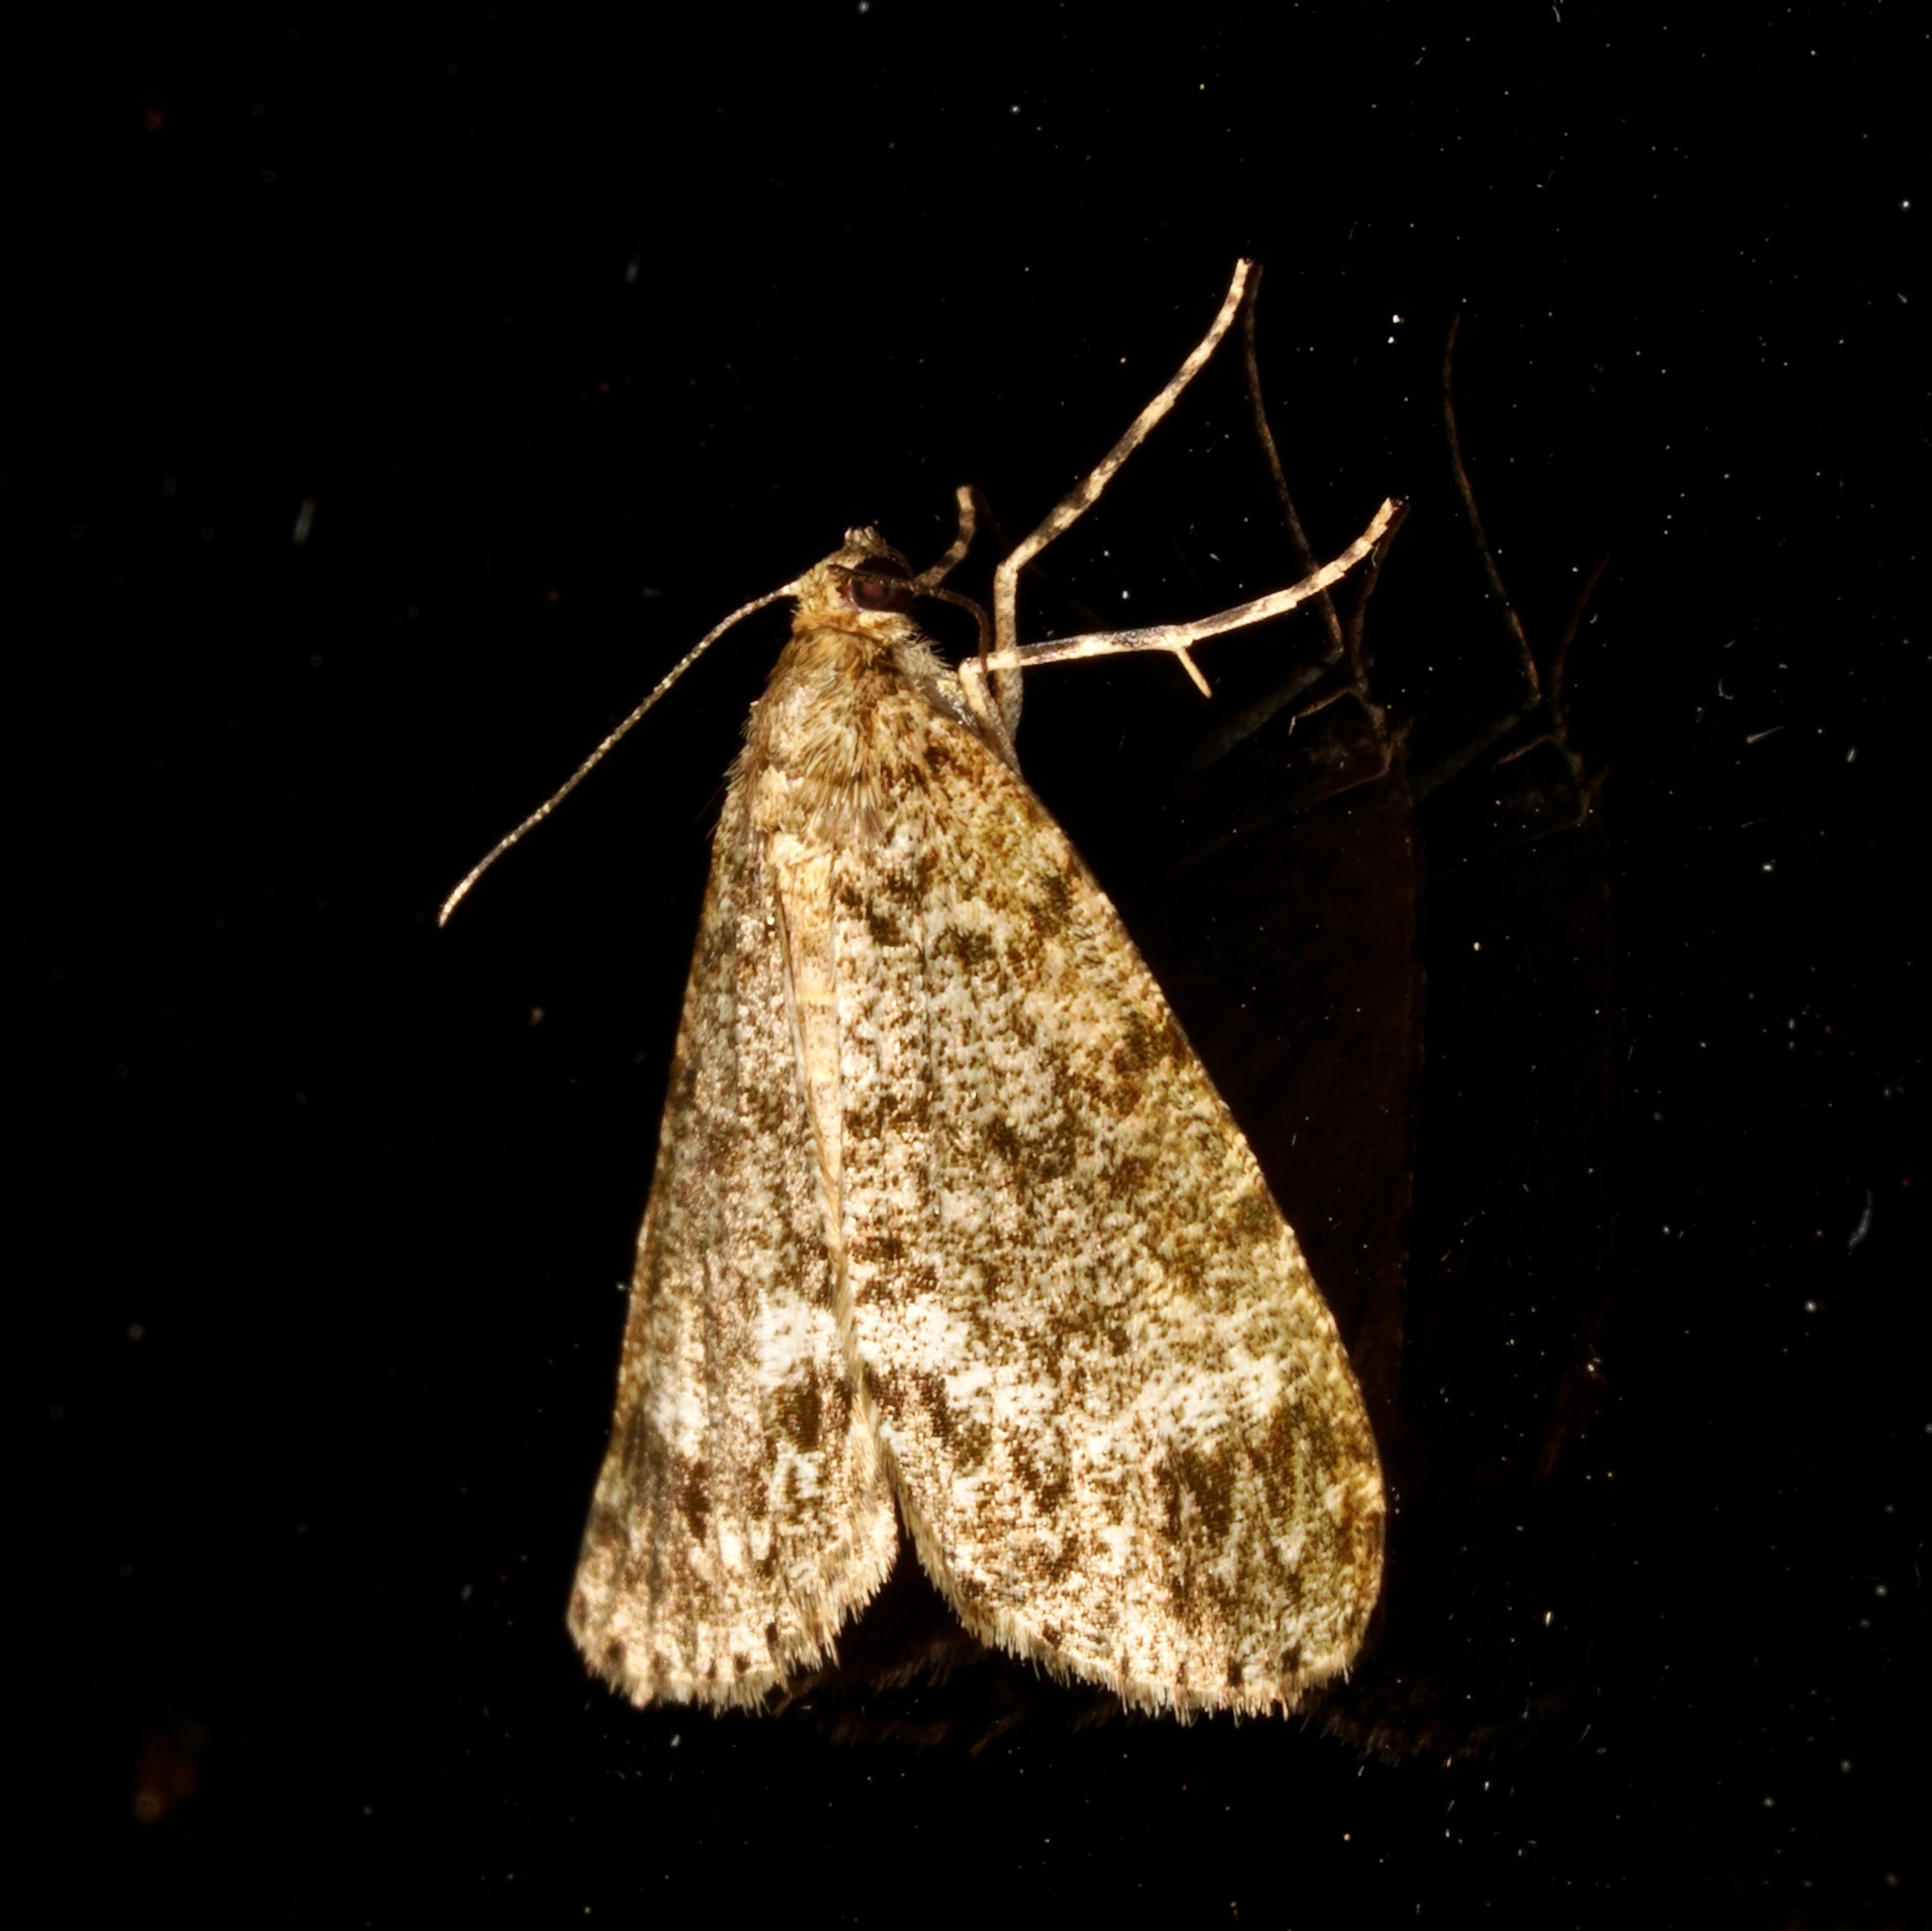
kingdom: Animalia
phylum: Arthropoda
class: Insecta
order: Lepidoptera
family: Geometridae
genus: Pseudocoremia
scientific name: Pseudocoremia indistincta
